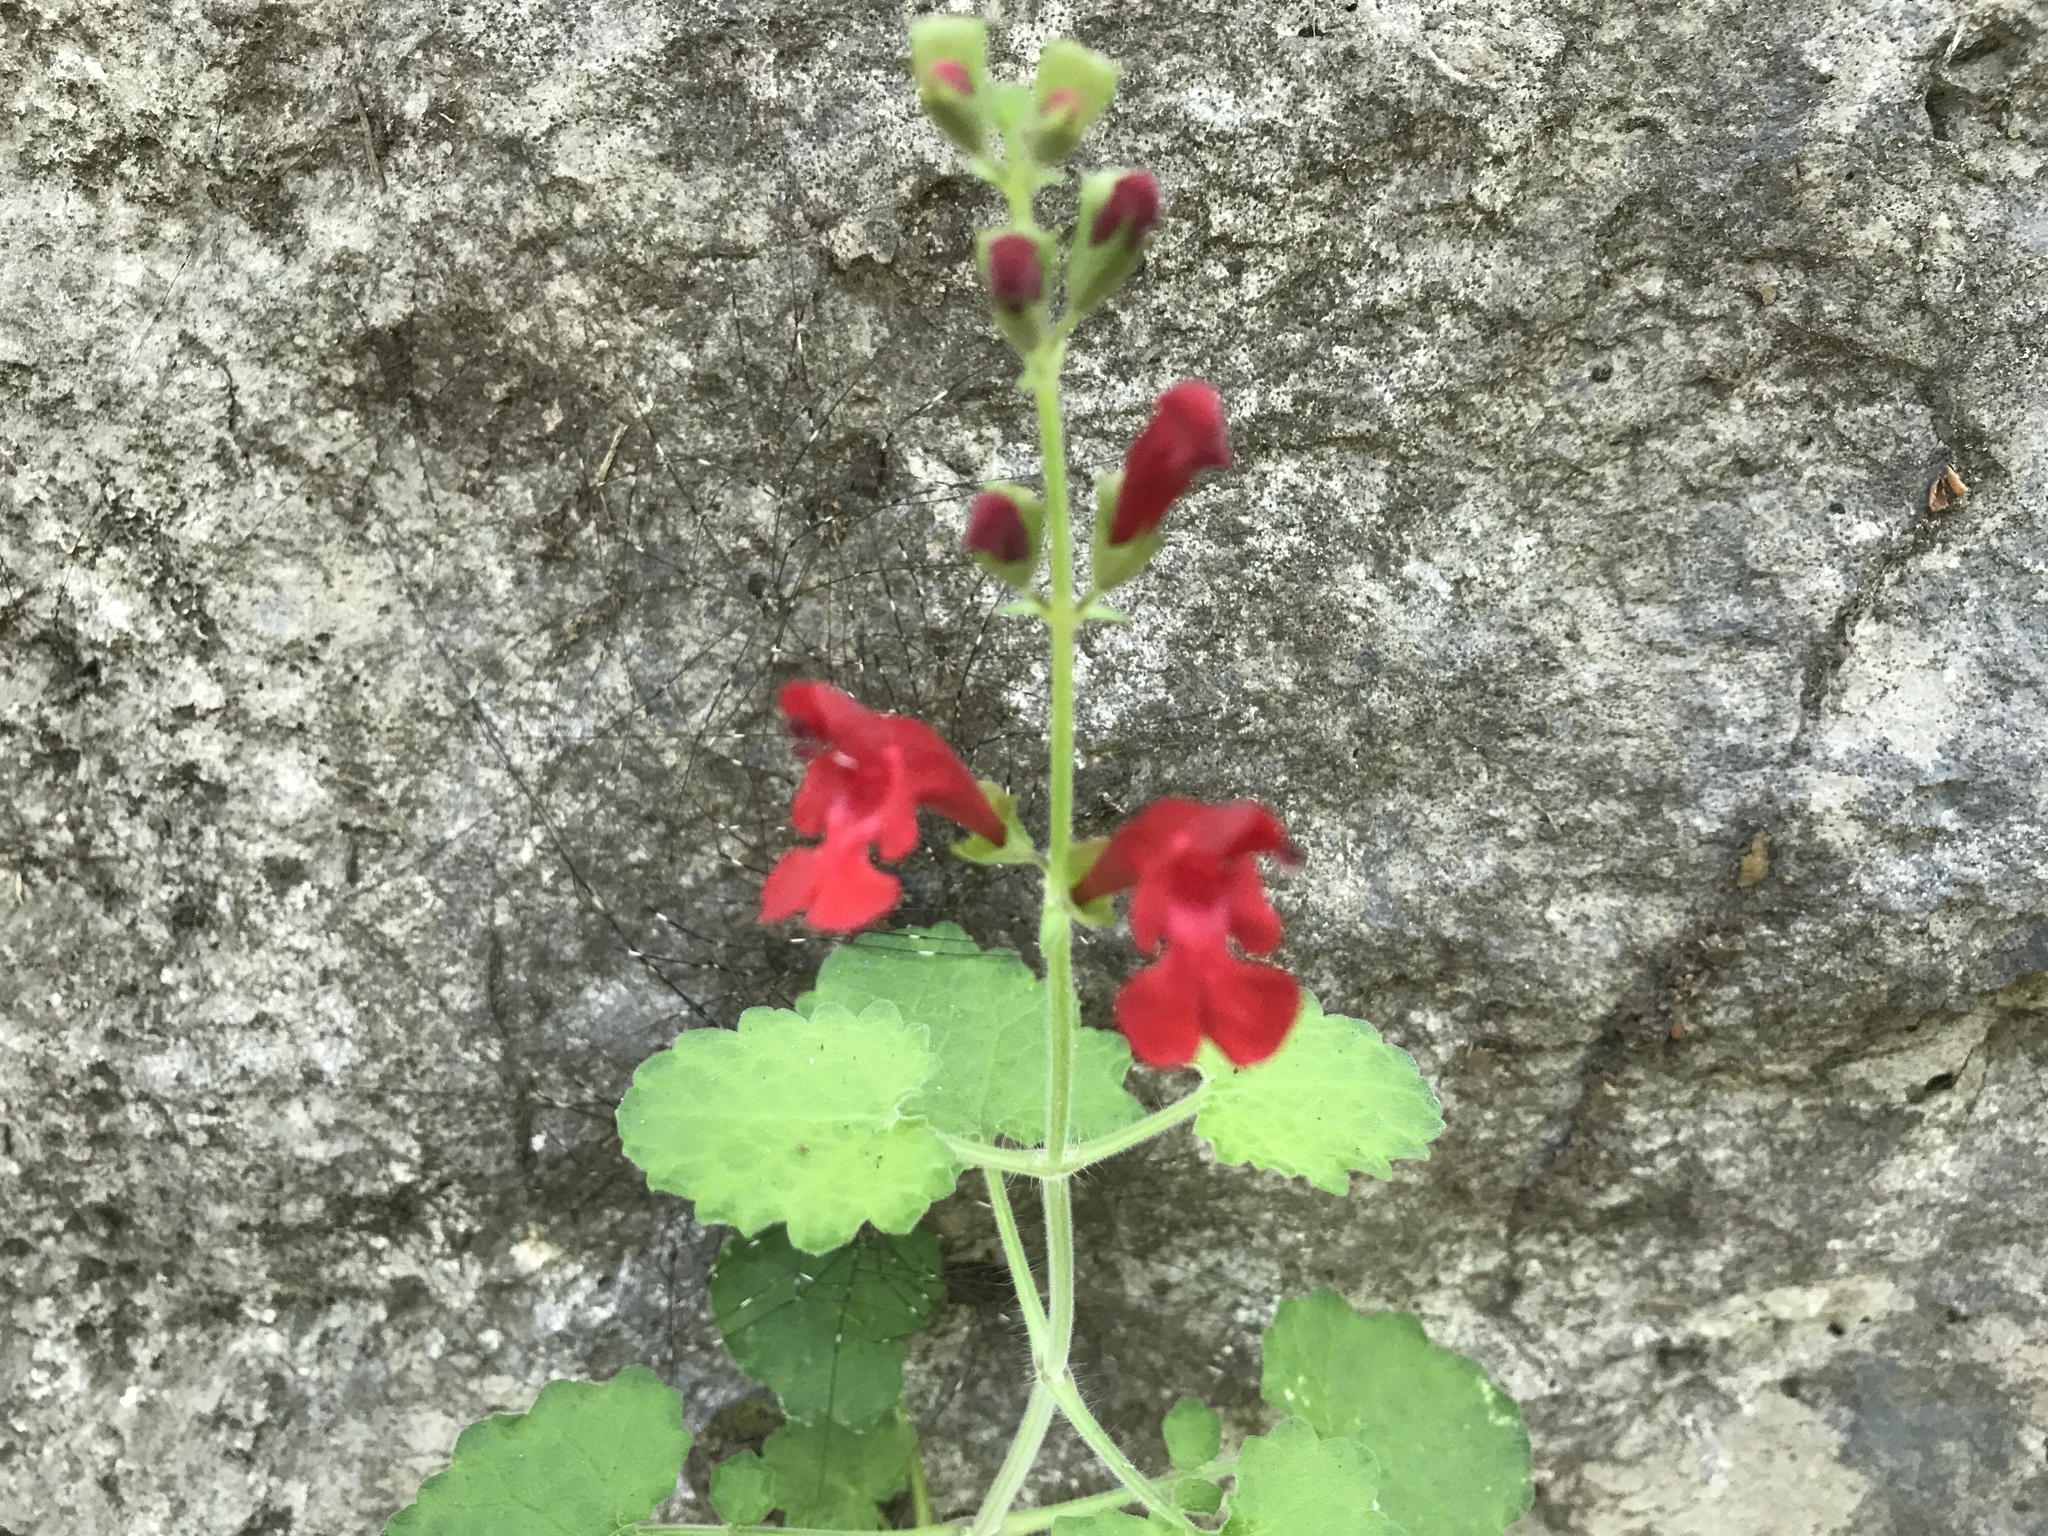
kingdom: Plantae
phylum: Tracheophyta
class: Magnoliopsida
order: Lamiales
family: Lamiaceae
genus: Salvia
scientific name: Salvia roemeriana
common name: Cedar sage
